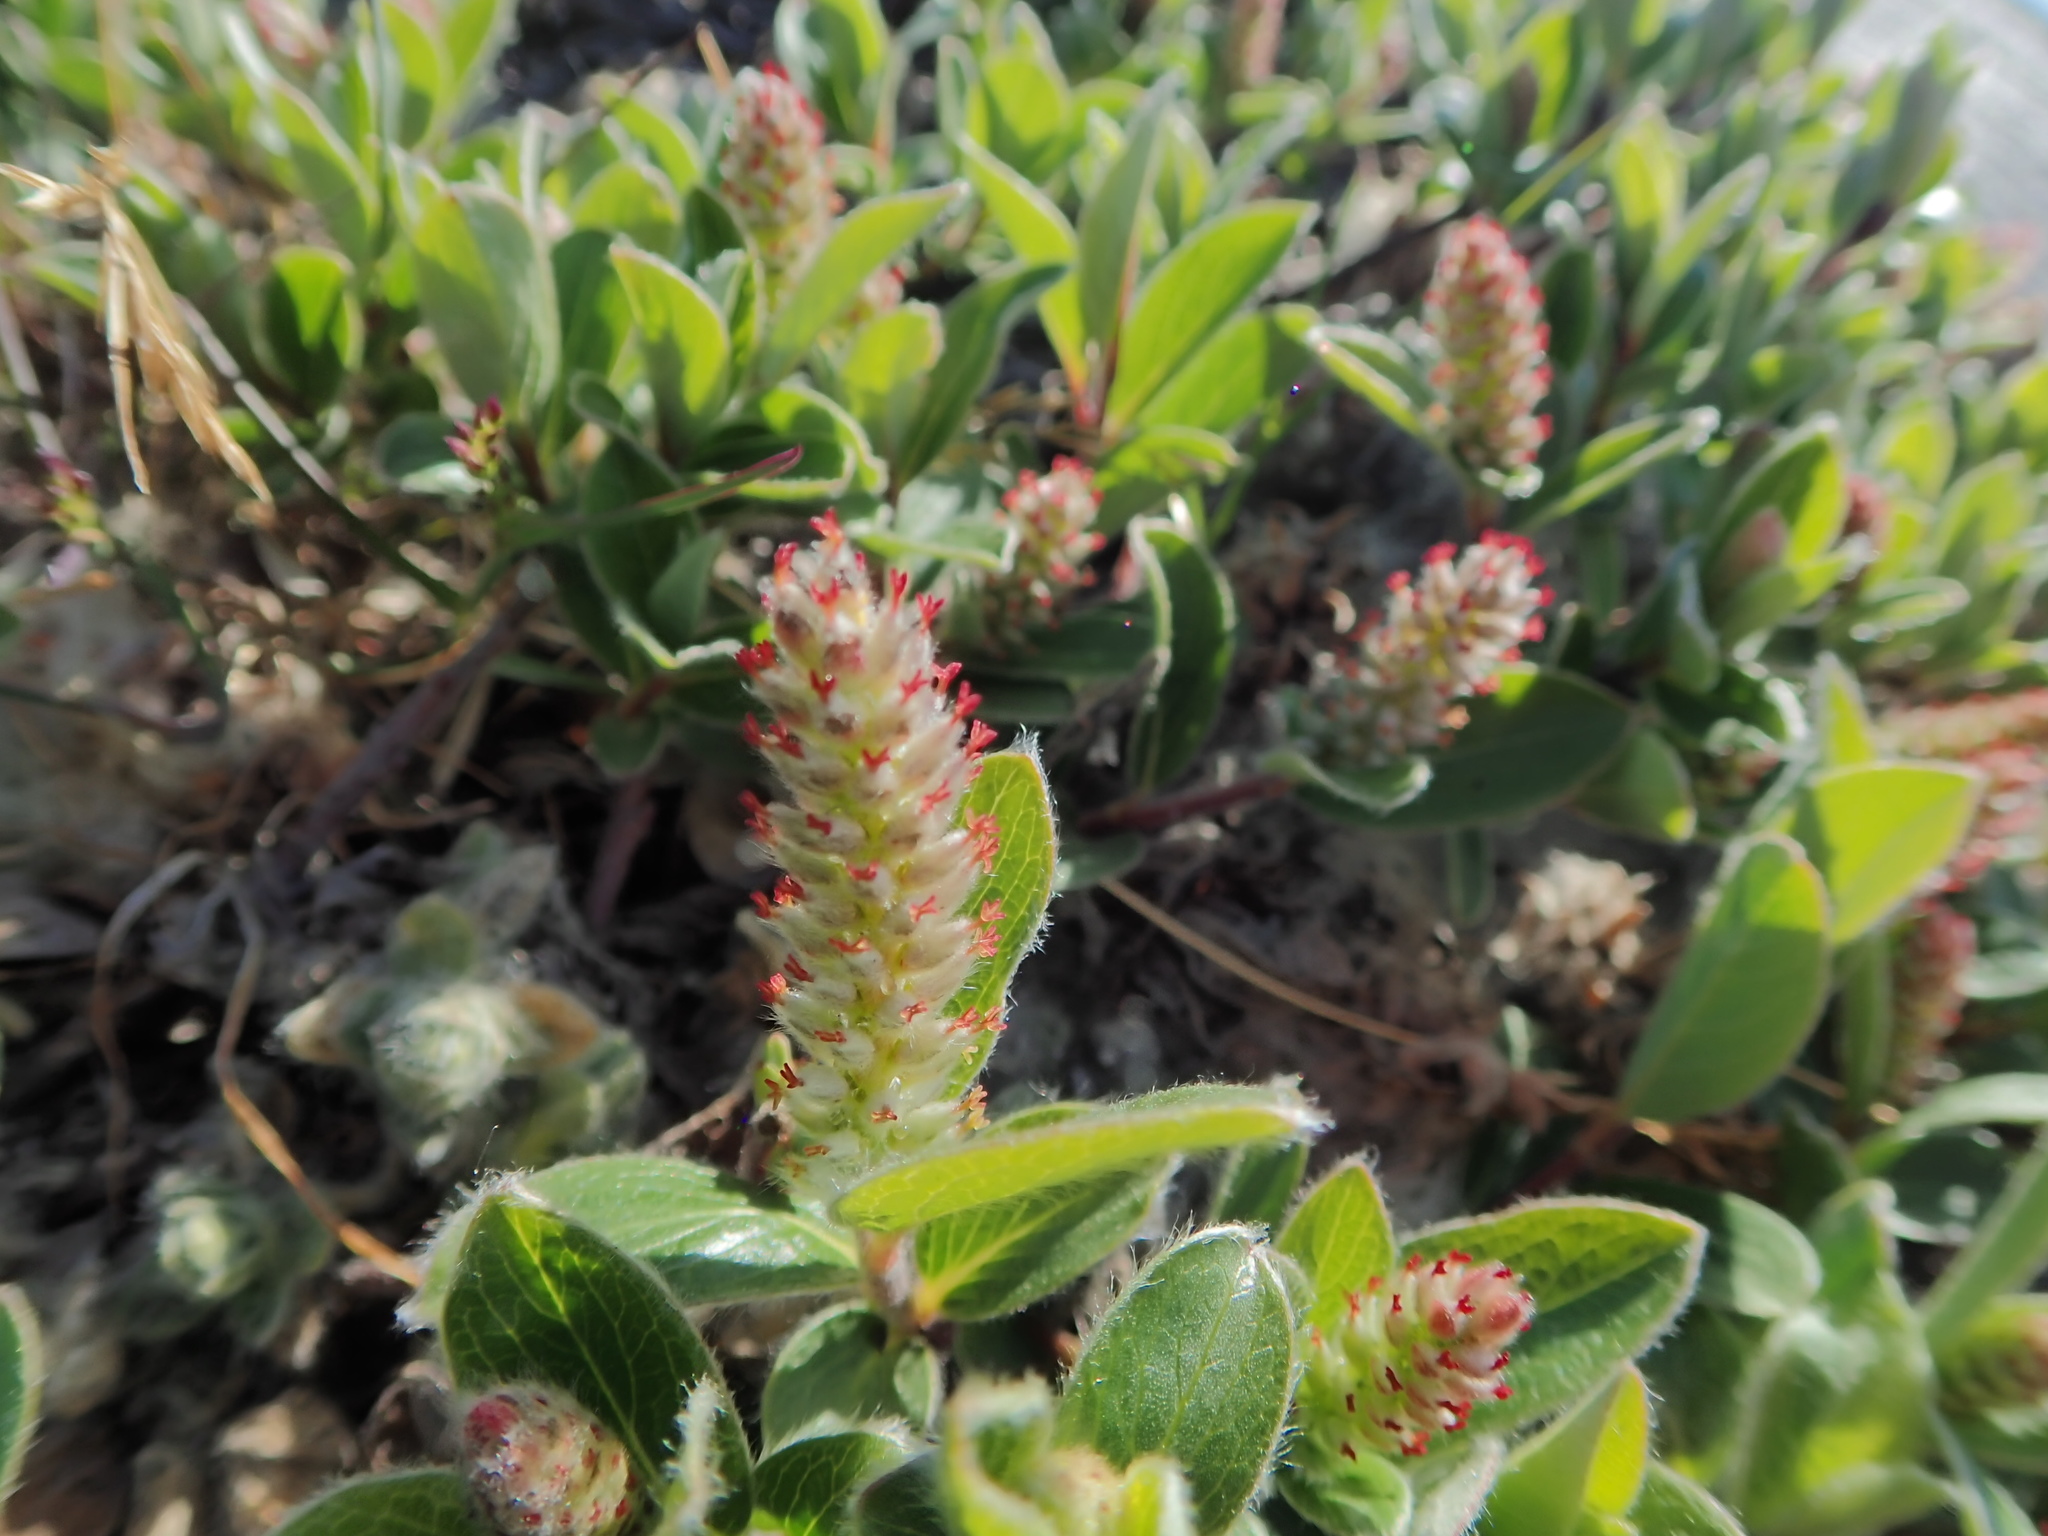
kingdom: Plantae
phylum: Tracheophyta
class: Magnoliopsida
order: Malpighiales
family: Salicaceae
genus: Salix
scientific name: Salix arctica
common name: Arctic willow
